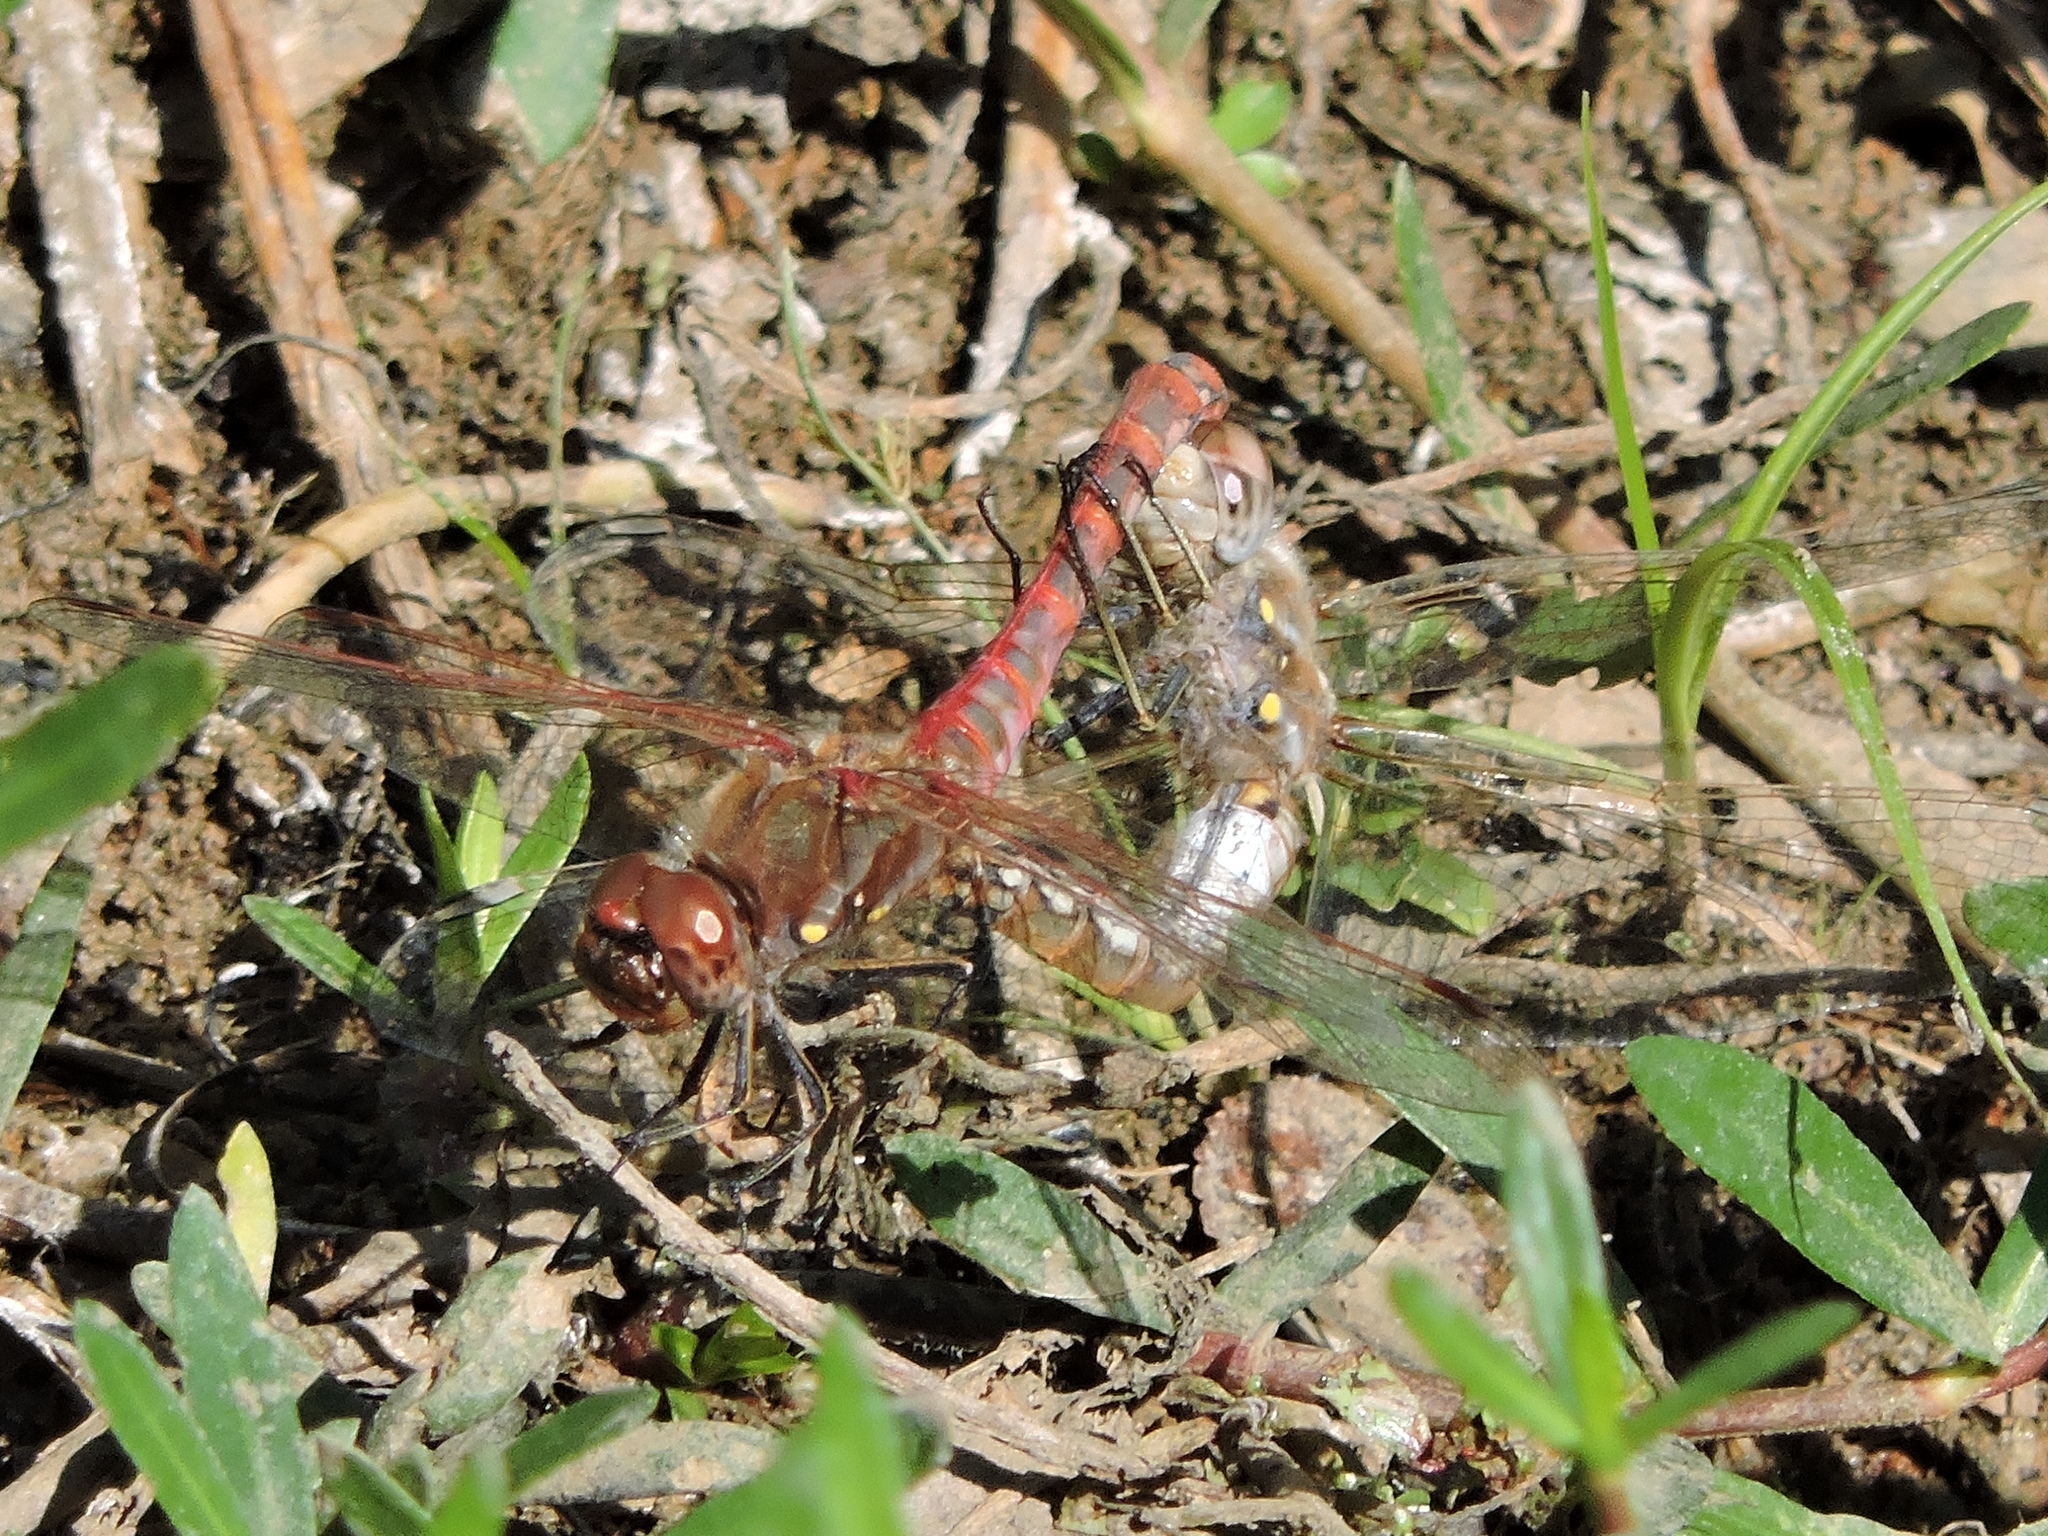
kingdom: Animalia
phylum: Arthropoda
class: Insecta
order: Odonata
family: Libellulidae
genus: Sympetrum
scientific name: Sympetrum corruptum
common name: Variegated meadowhawk
